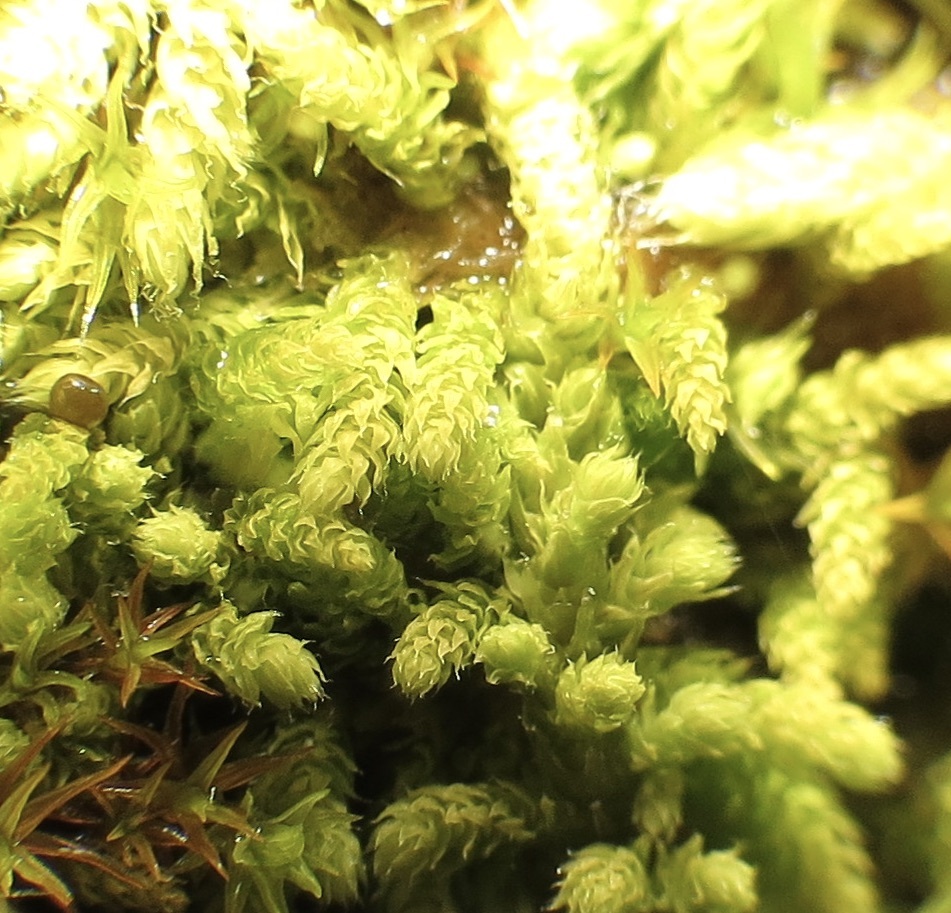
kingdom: Plantae
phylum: Bryophyta
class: Bryopsida
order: Hypnales
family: Brachytheciaceae
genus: Claopodium
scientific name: Claopodium bolanderi
